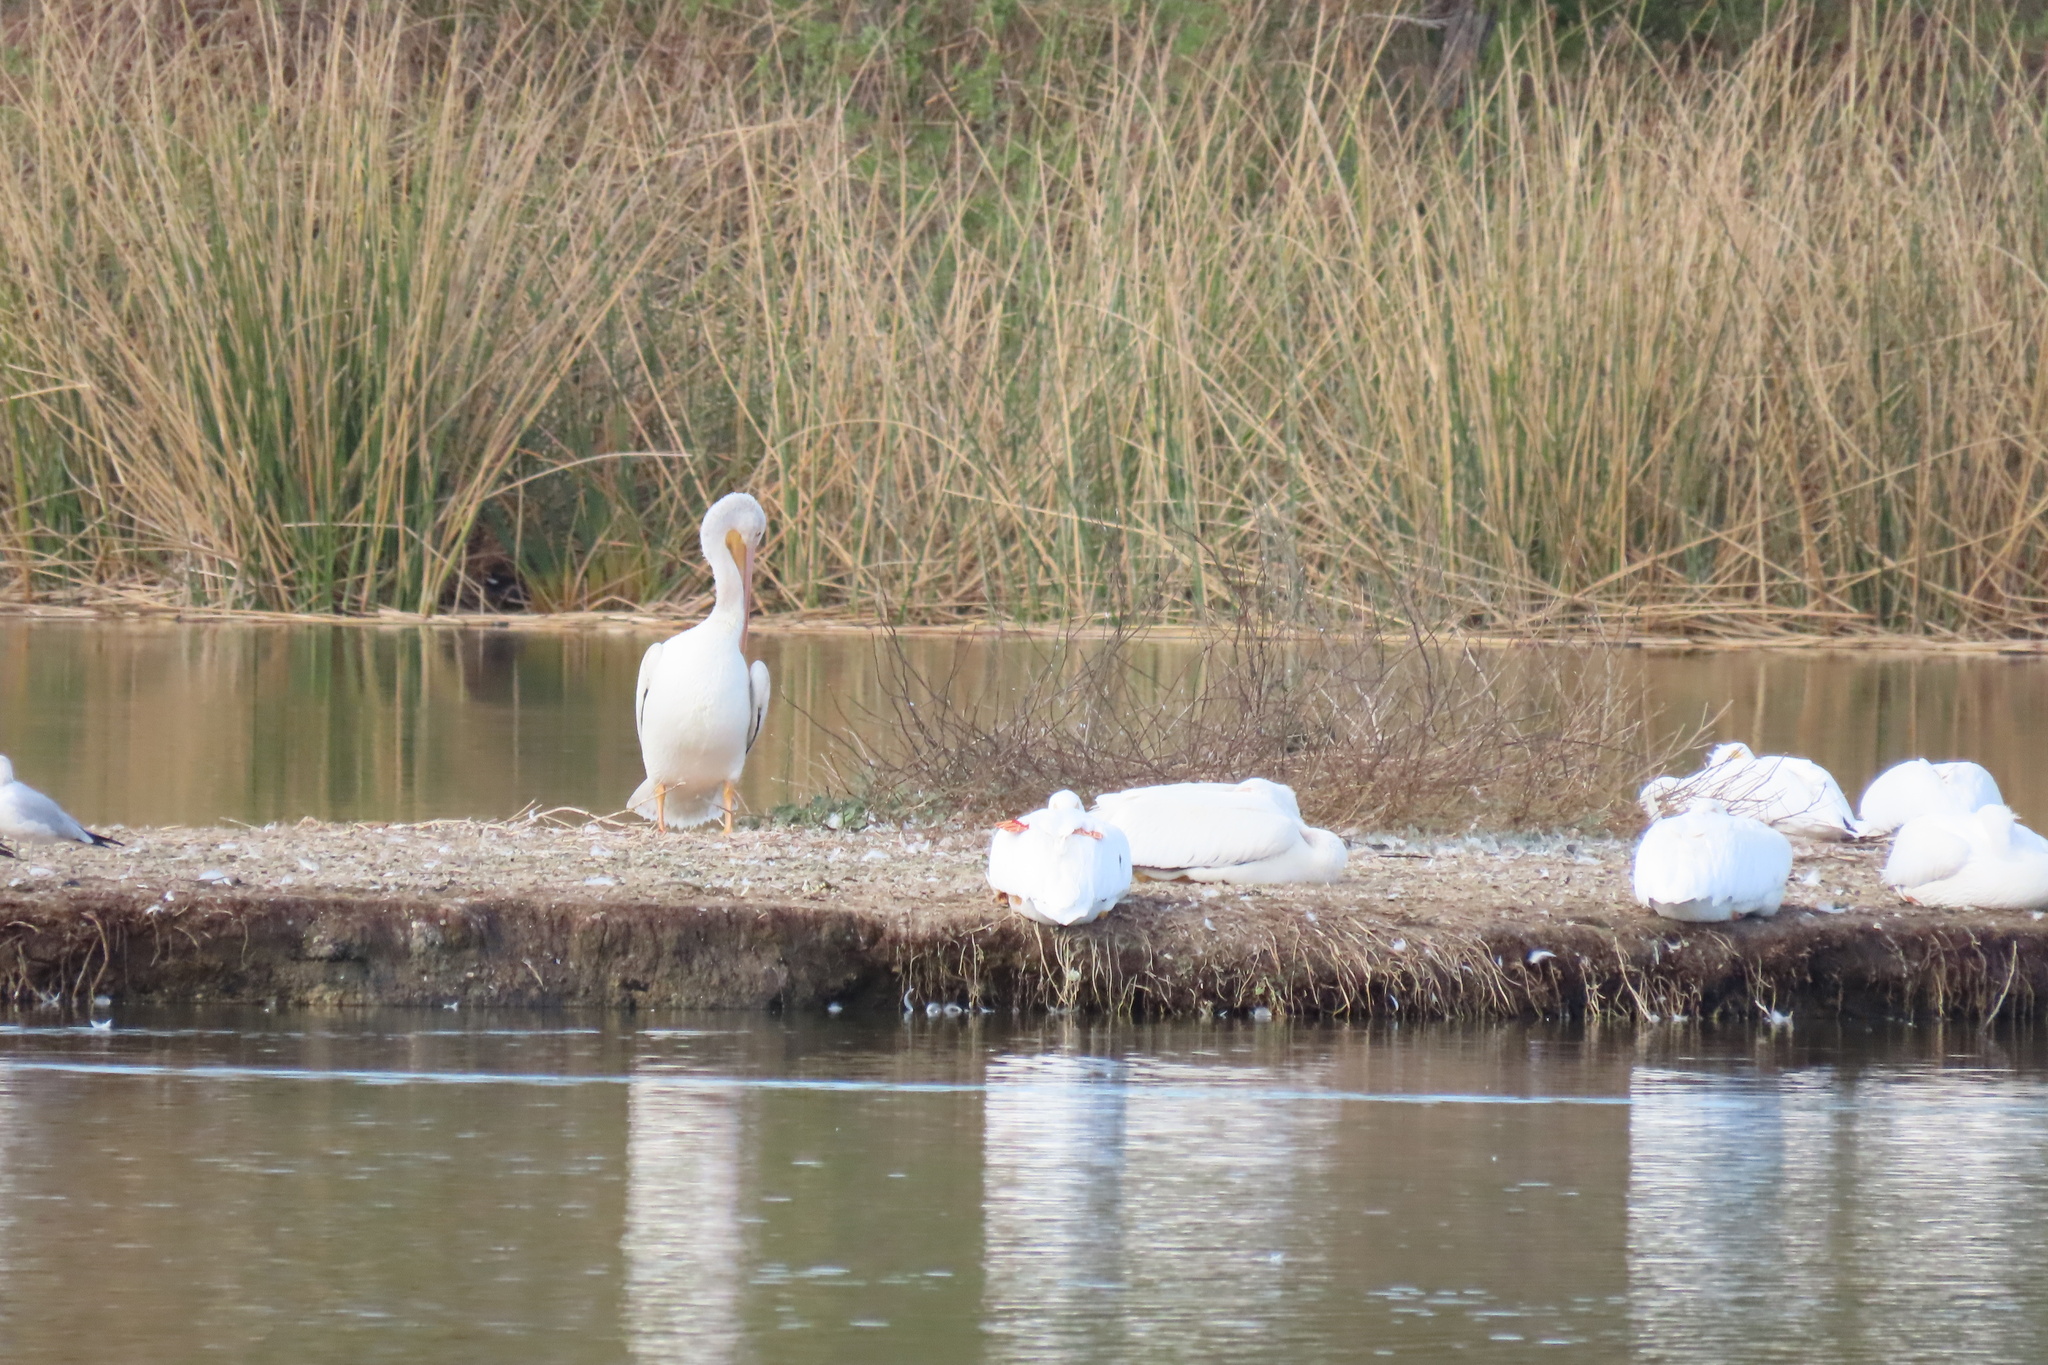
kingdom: Animalia
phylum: Chordata
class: Aves
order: Pelecaniformes
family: Pelecanidae
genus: Pelecanus
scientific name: Pelecanus erythrorhynchos
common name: American white pelican
